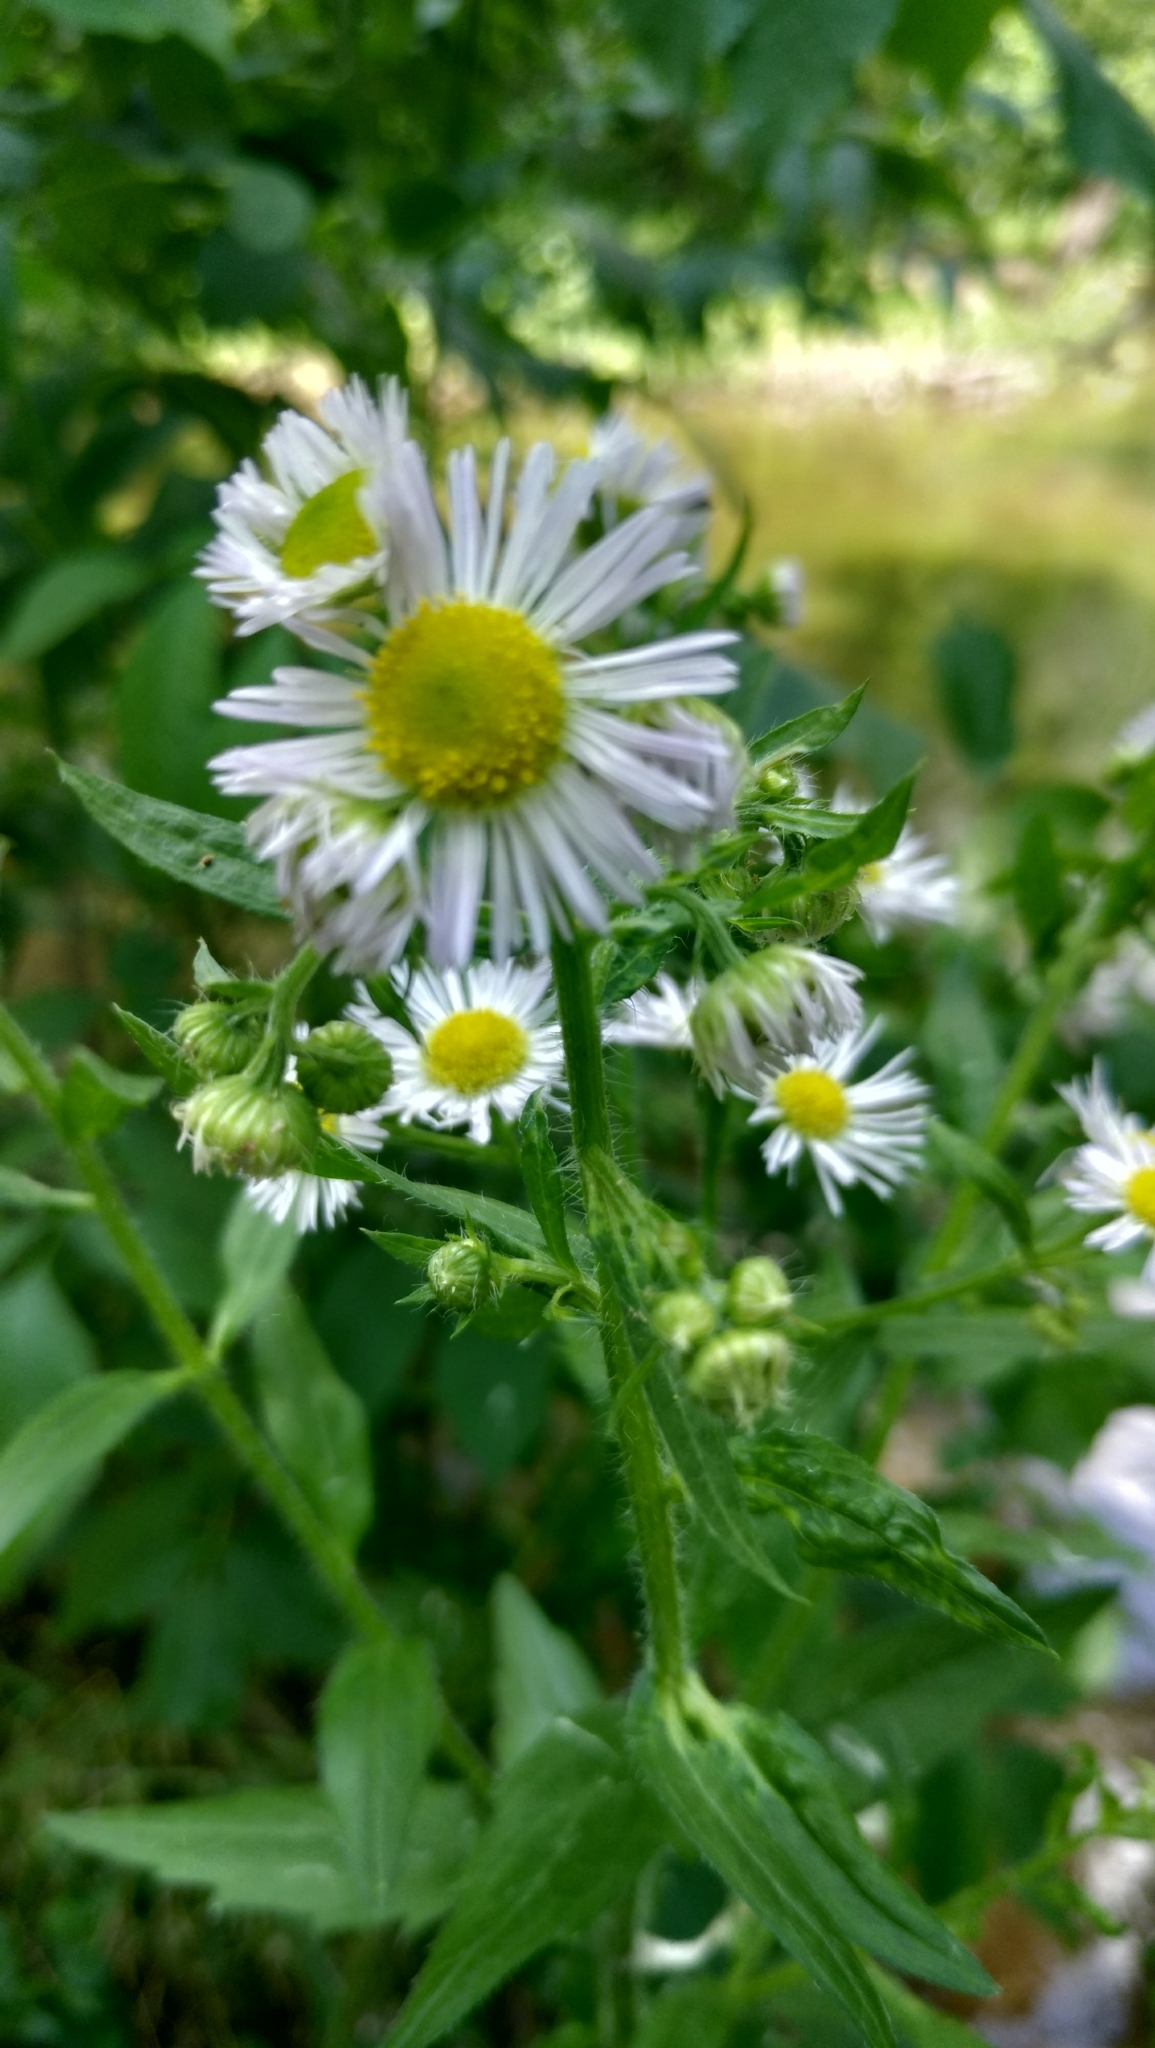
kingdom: Plantae
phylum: Tracheophyta
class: Magnoliopsida
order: Asterales
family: Asteraceae
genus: Erigeron
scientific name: Erigeron annuus
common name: Tall fleabane
